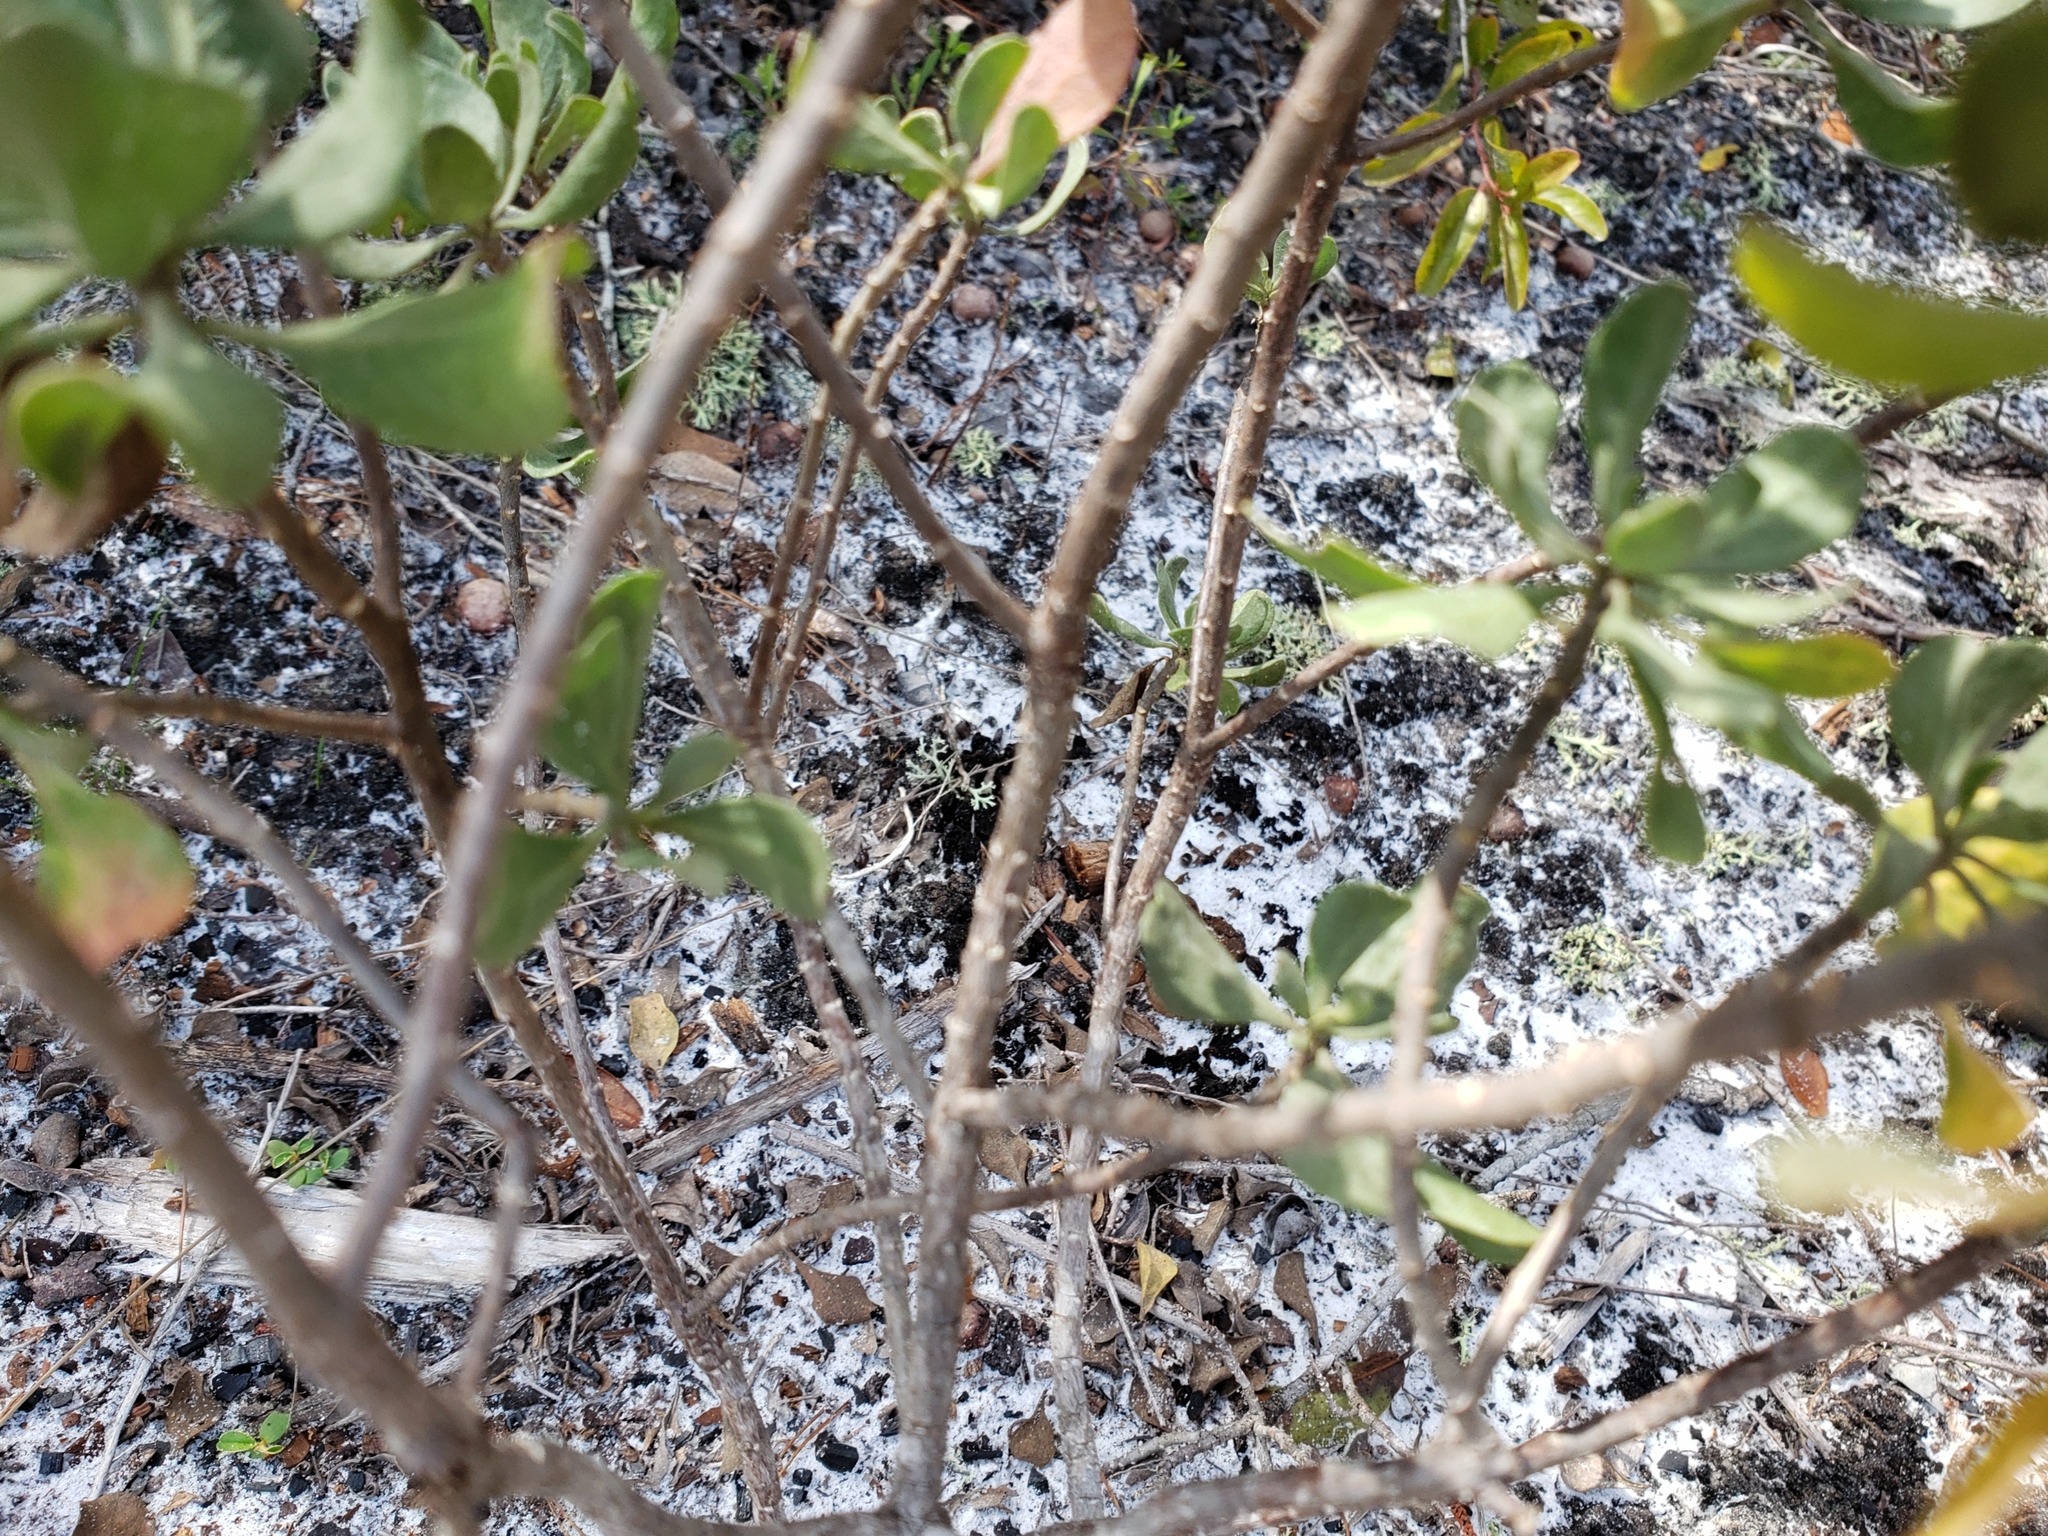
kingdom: Plantae
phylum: Tracheophyta
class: Magnoliopsida
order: Asterales
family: Asteraceae
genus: Garberia
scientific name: Garberia heterophylla
